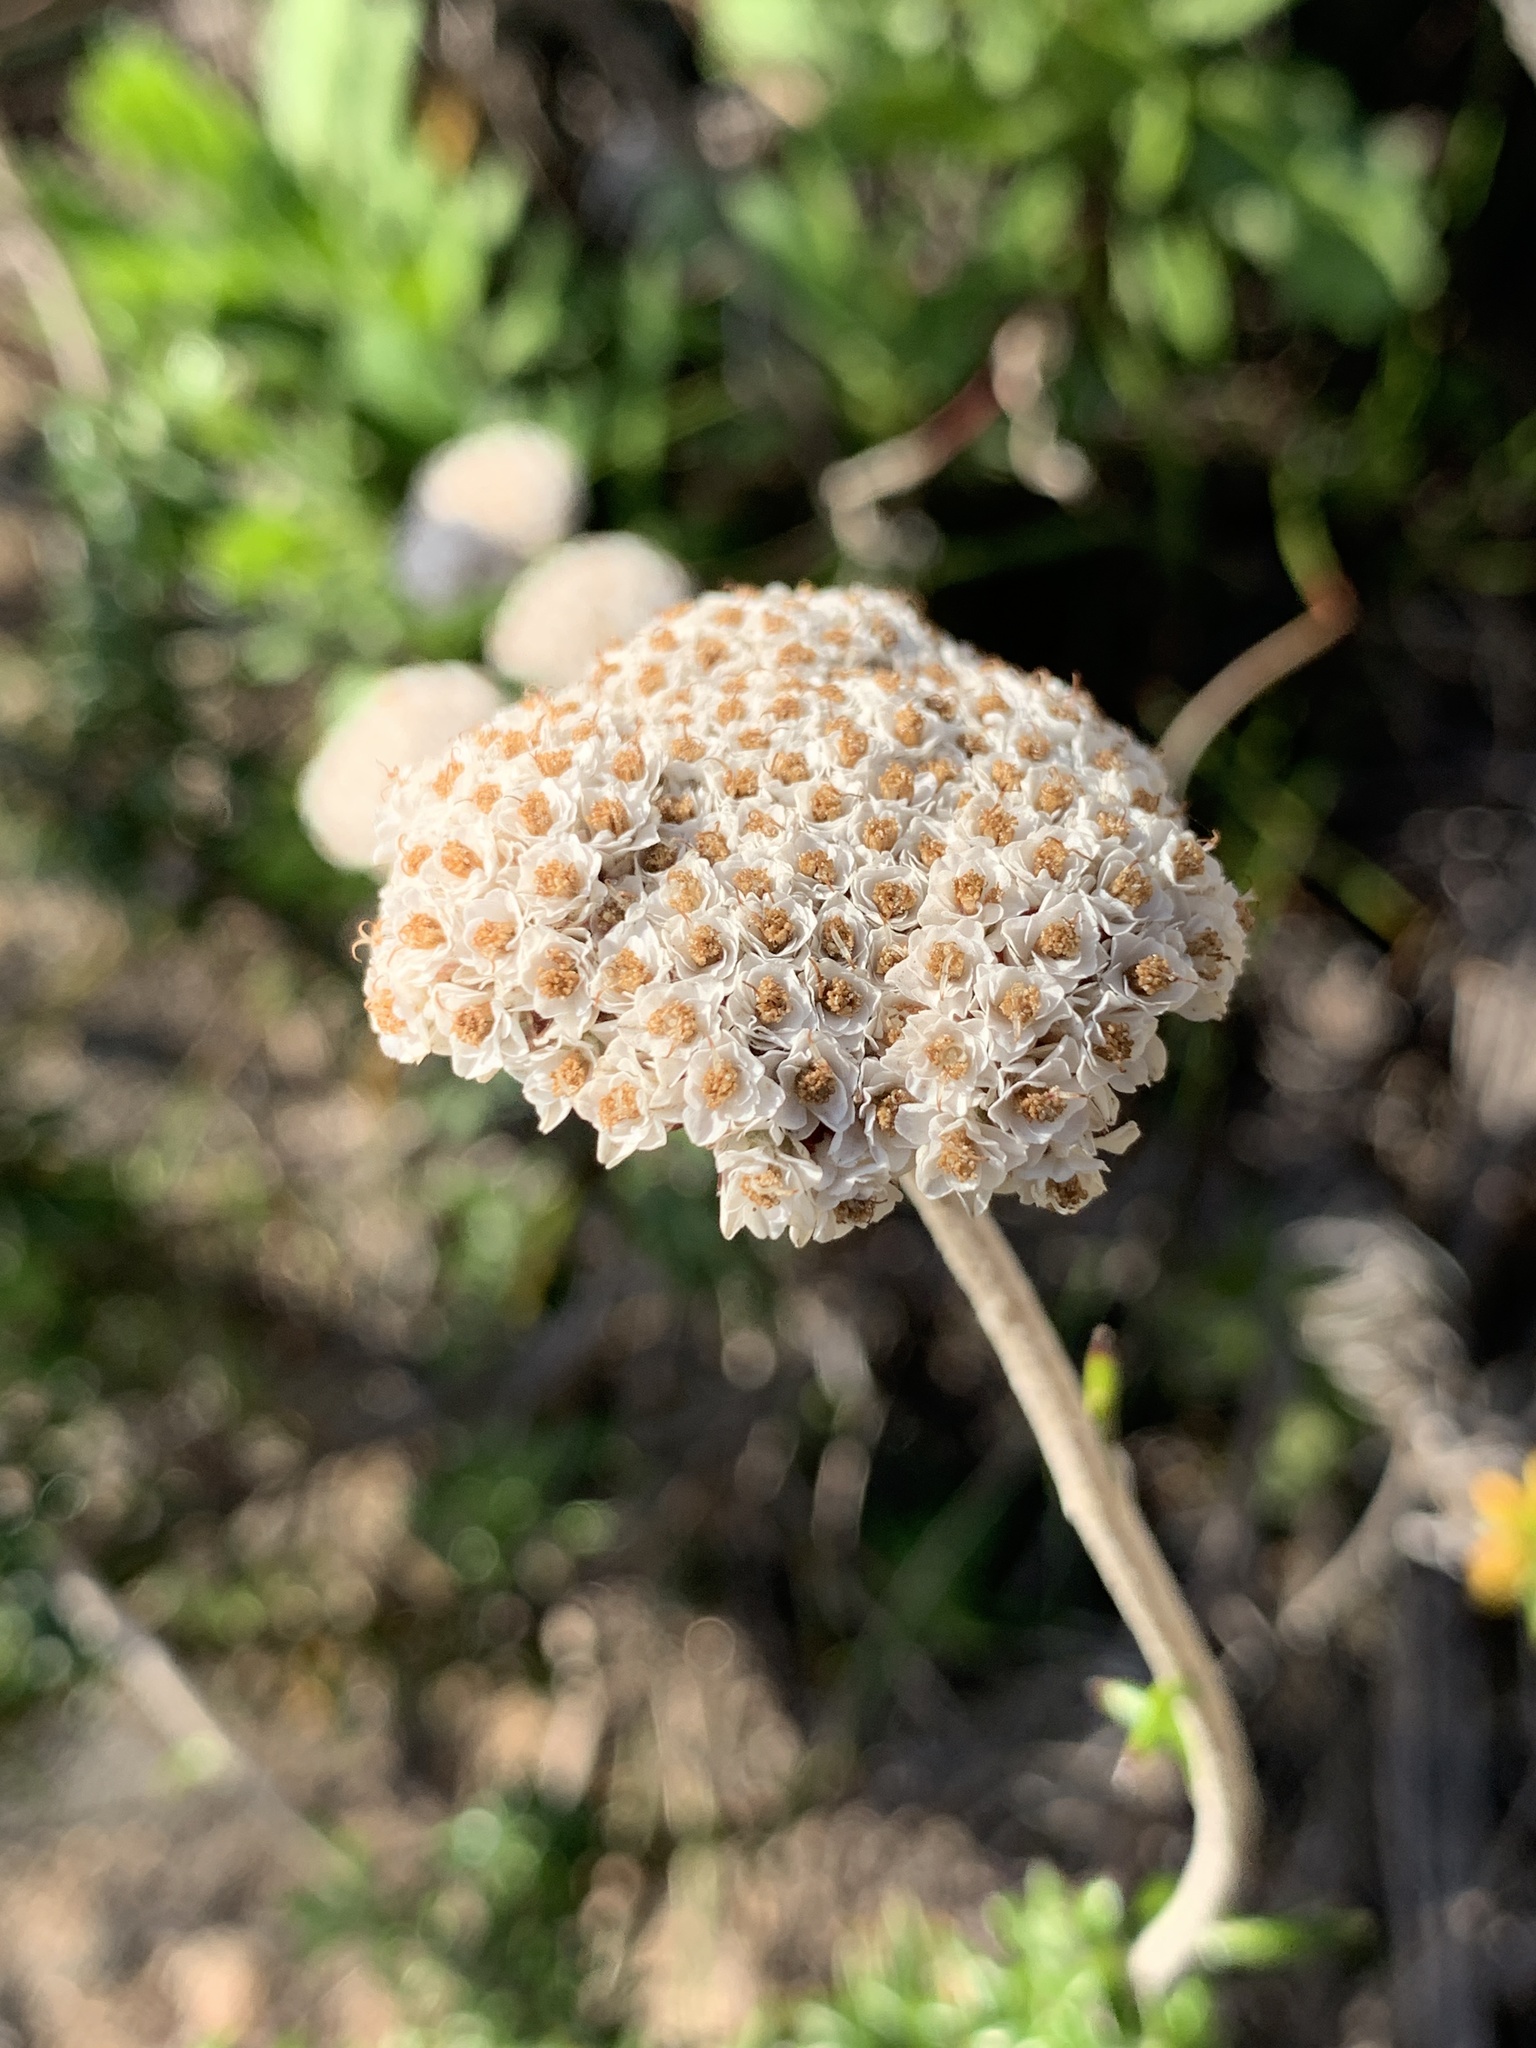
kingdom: Plantae
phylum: Tracheophyta
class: Magnoliopsida
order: Asterales
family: Asteraceae
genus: Anaxeton
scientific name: Anaxeton arborescens
